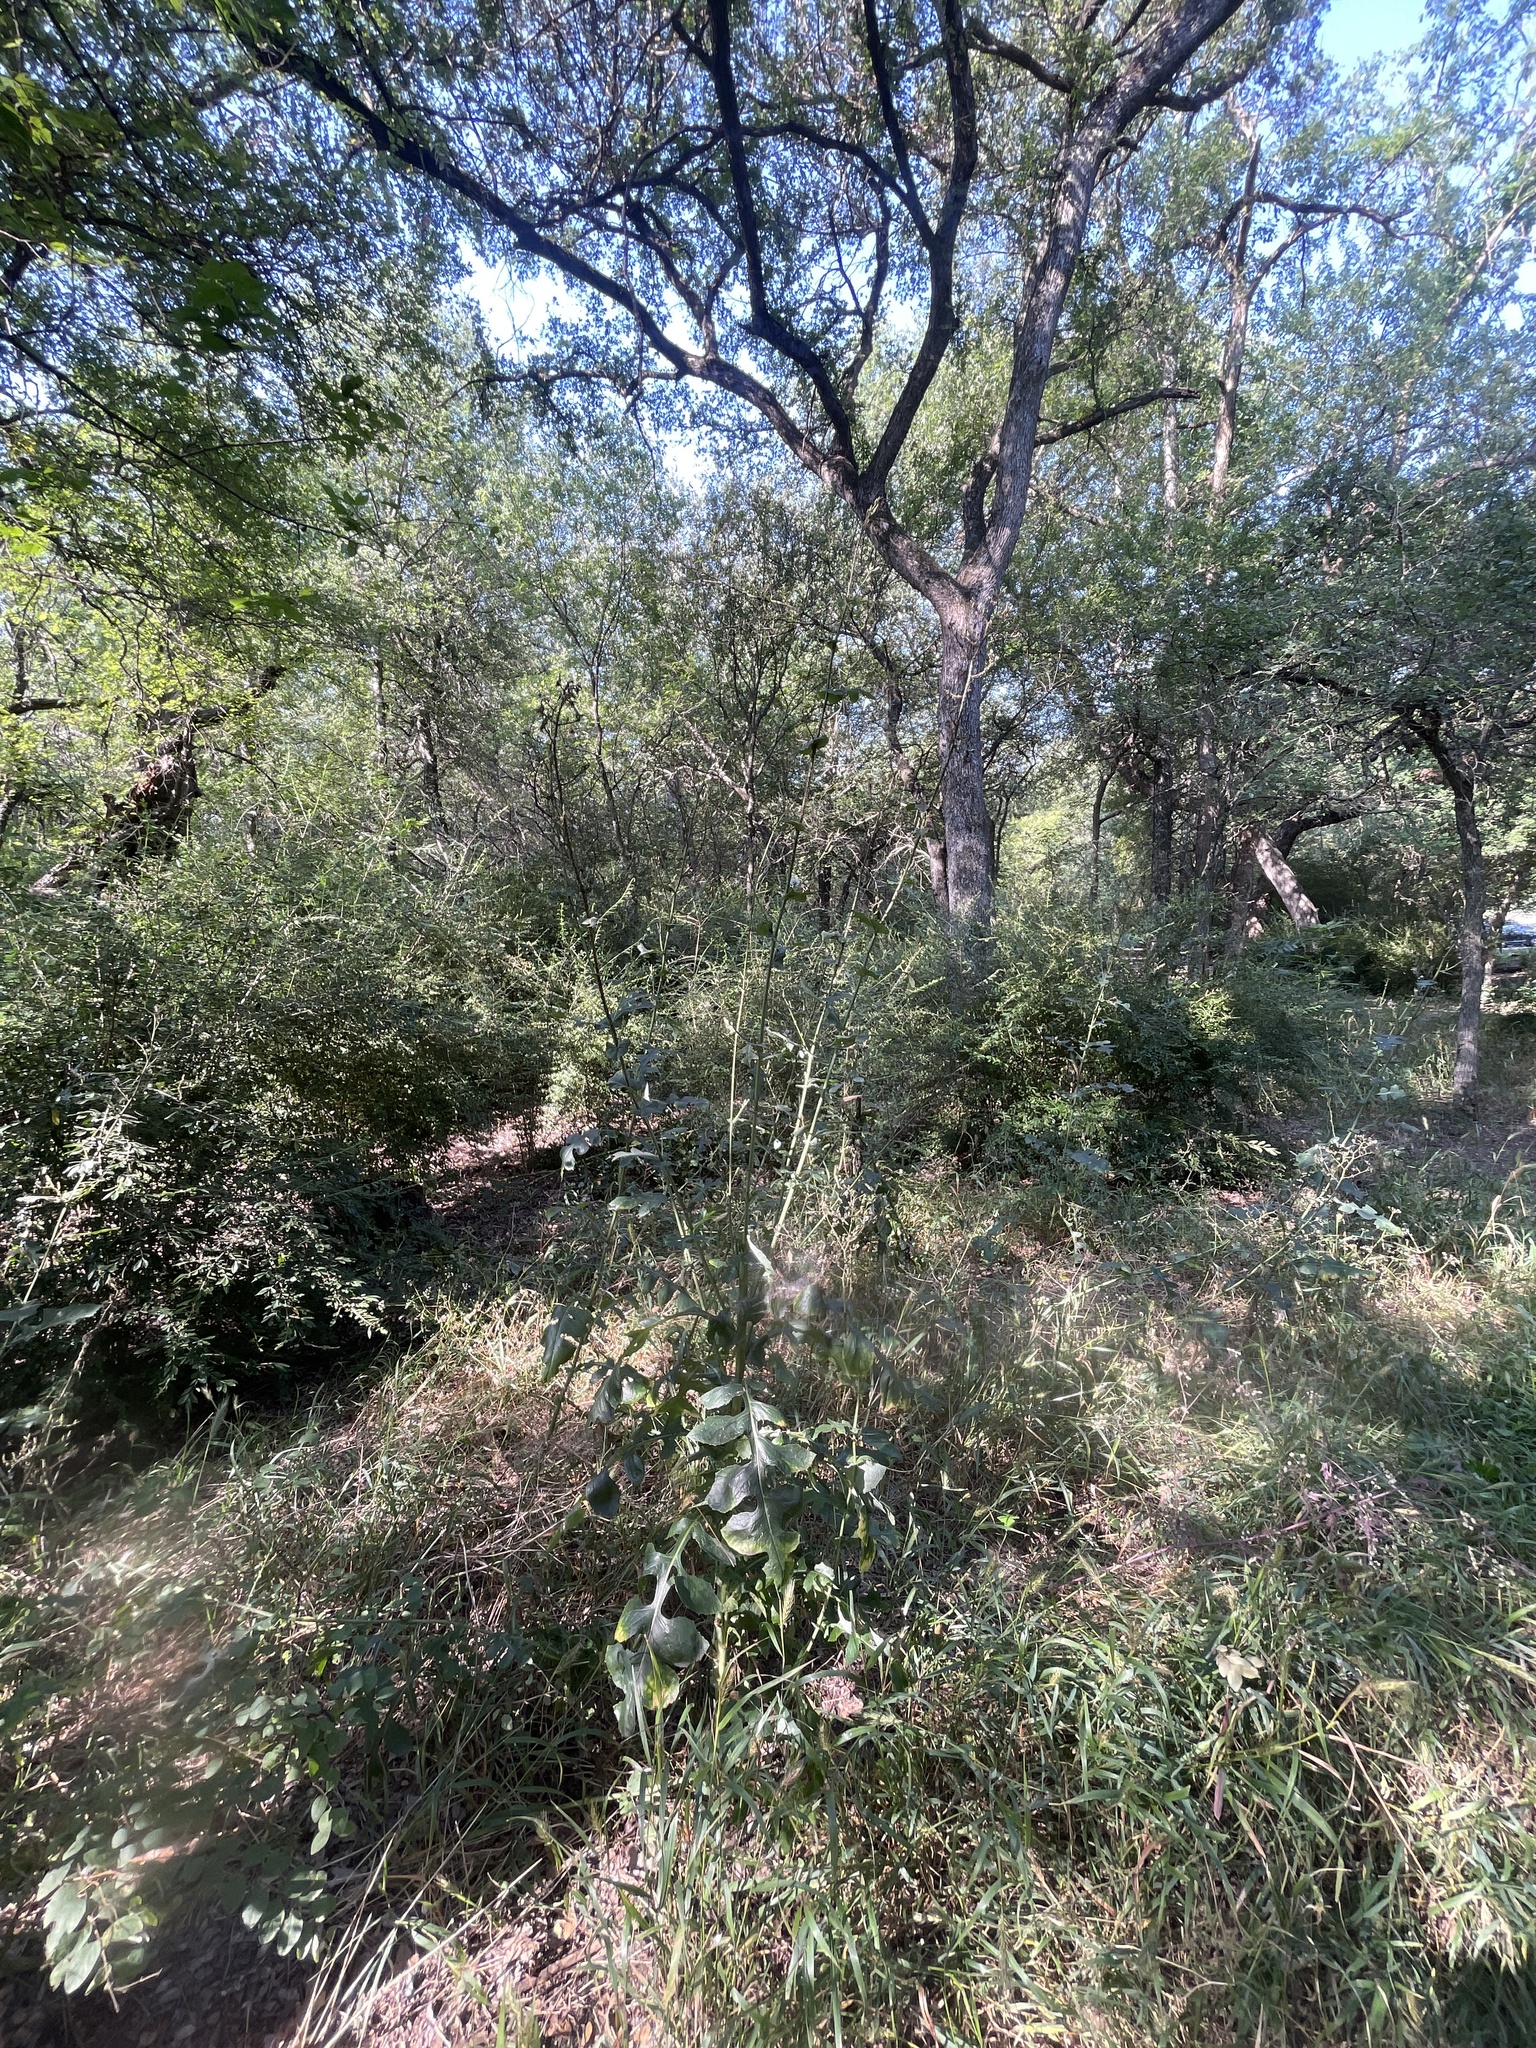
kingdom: Plantae
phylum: Tracheophyta
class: Magnoliopsida
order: Asterales
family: Asteraceae
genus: Lactuca
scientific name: Lactuca floridana
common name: Woodland lettuce
